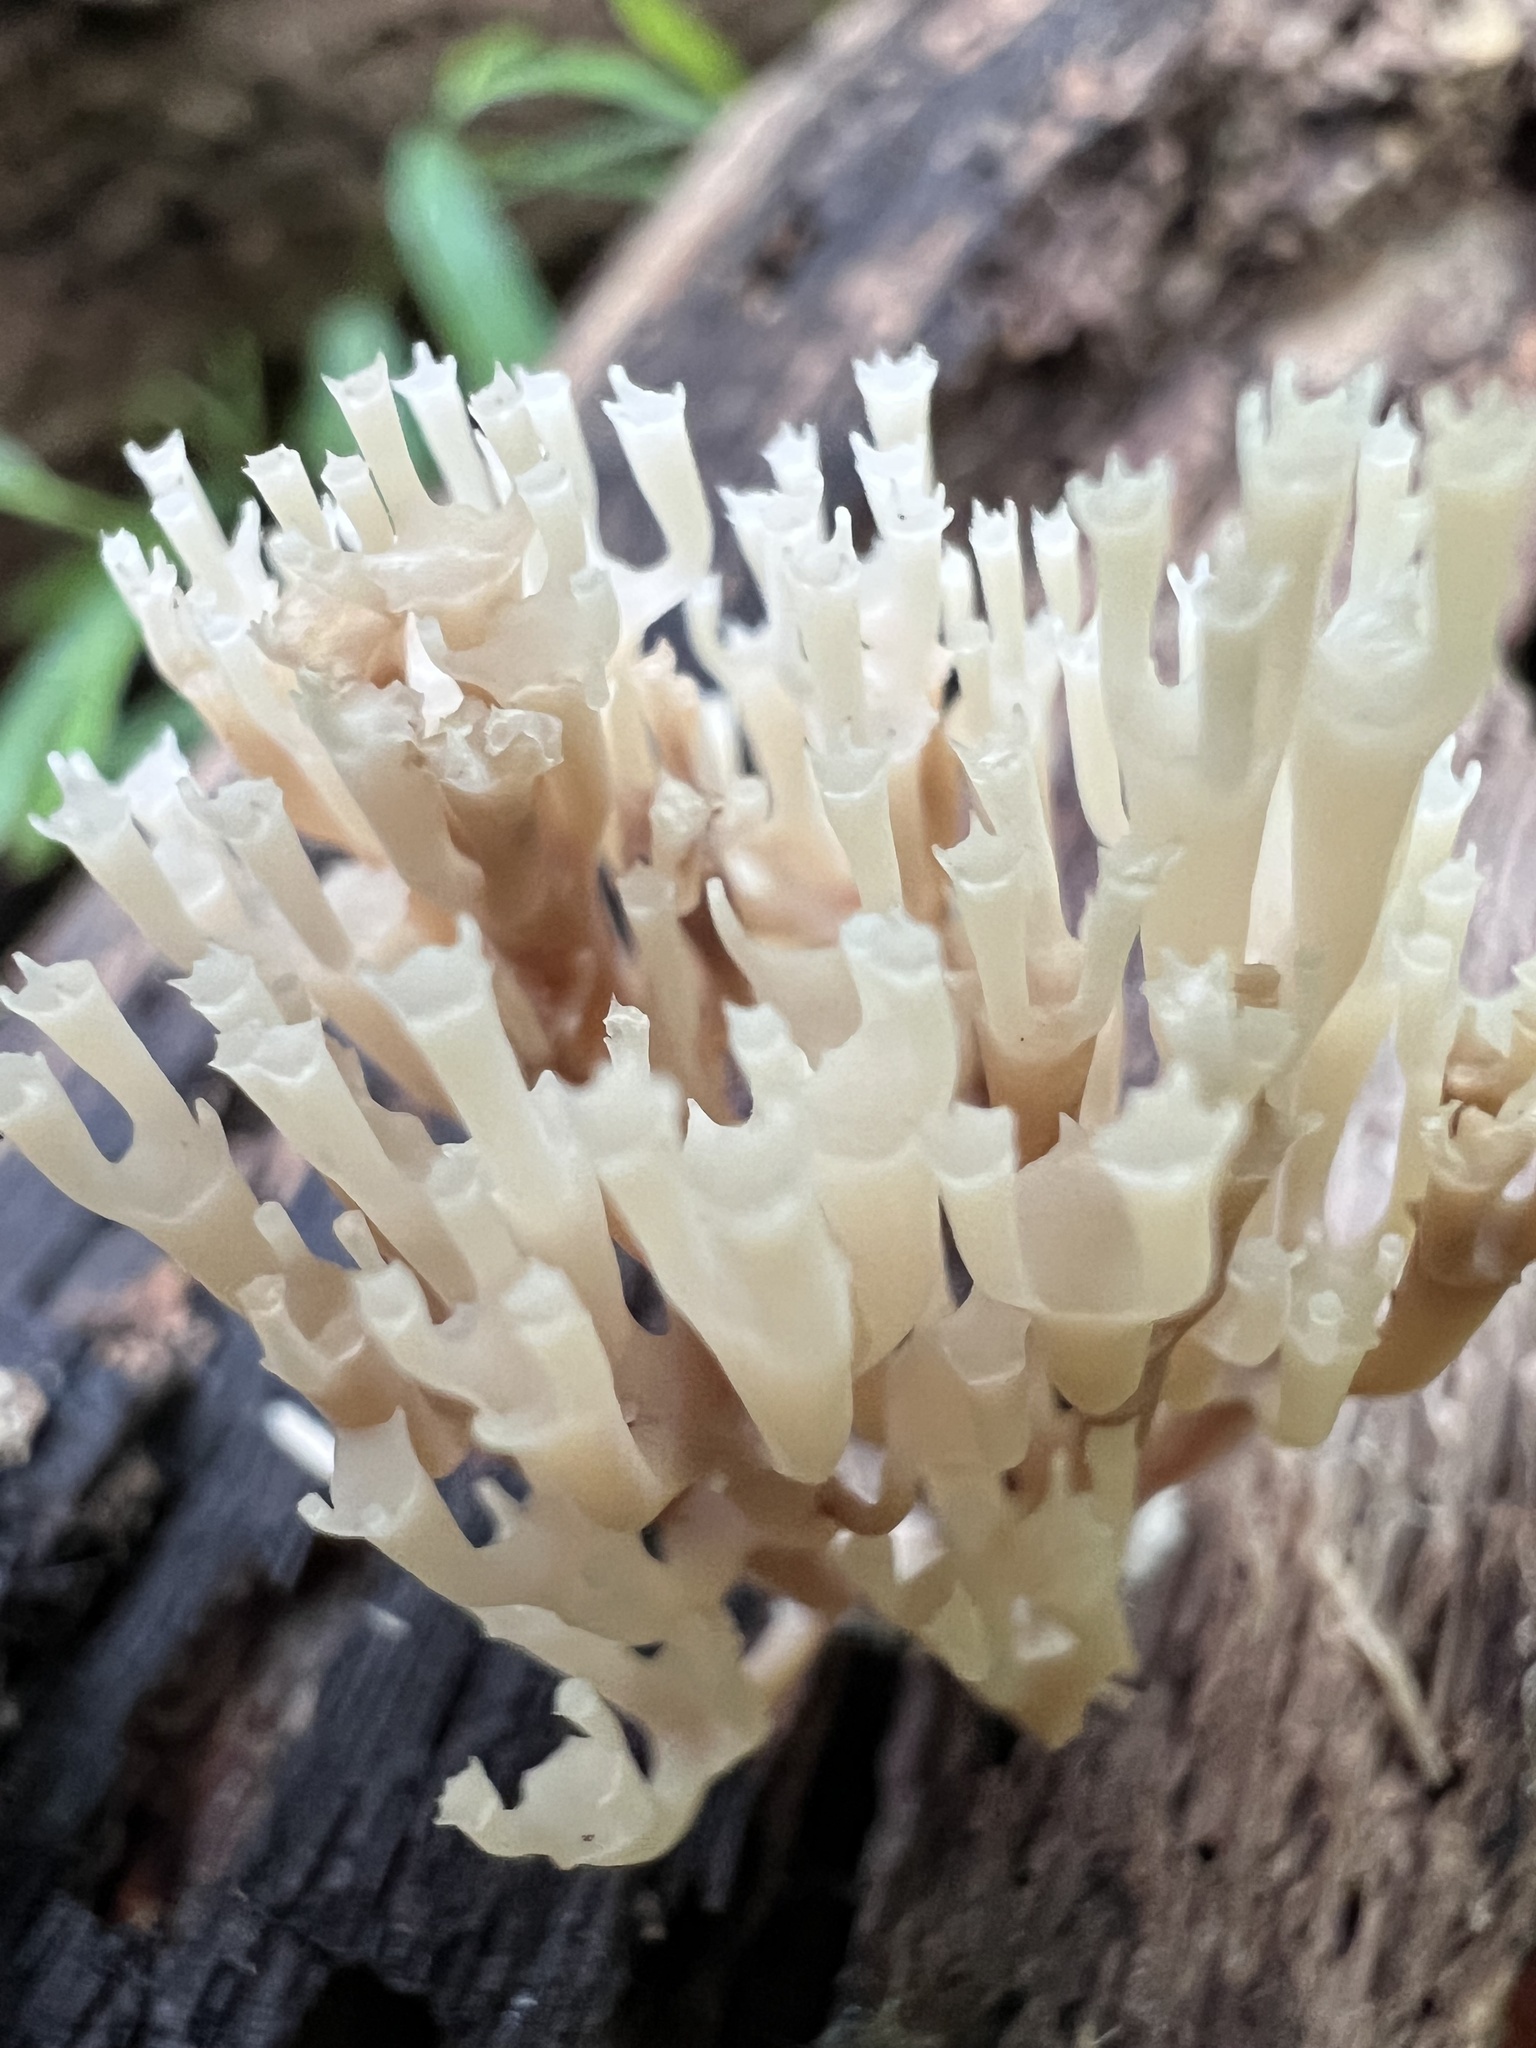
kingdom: Fungi
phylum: Basidiomycota
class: Agaricomycetes
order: Russulales
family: Auriscalpiaceae
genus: Artomyces
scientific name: Artomyces pyxidatus
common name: Crown-tipped coral fungus
